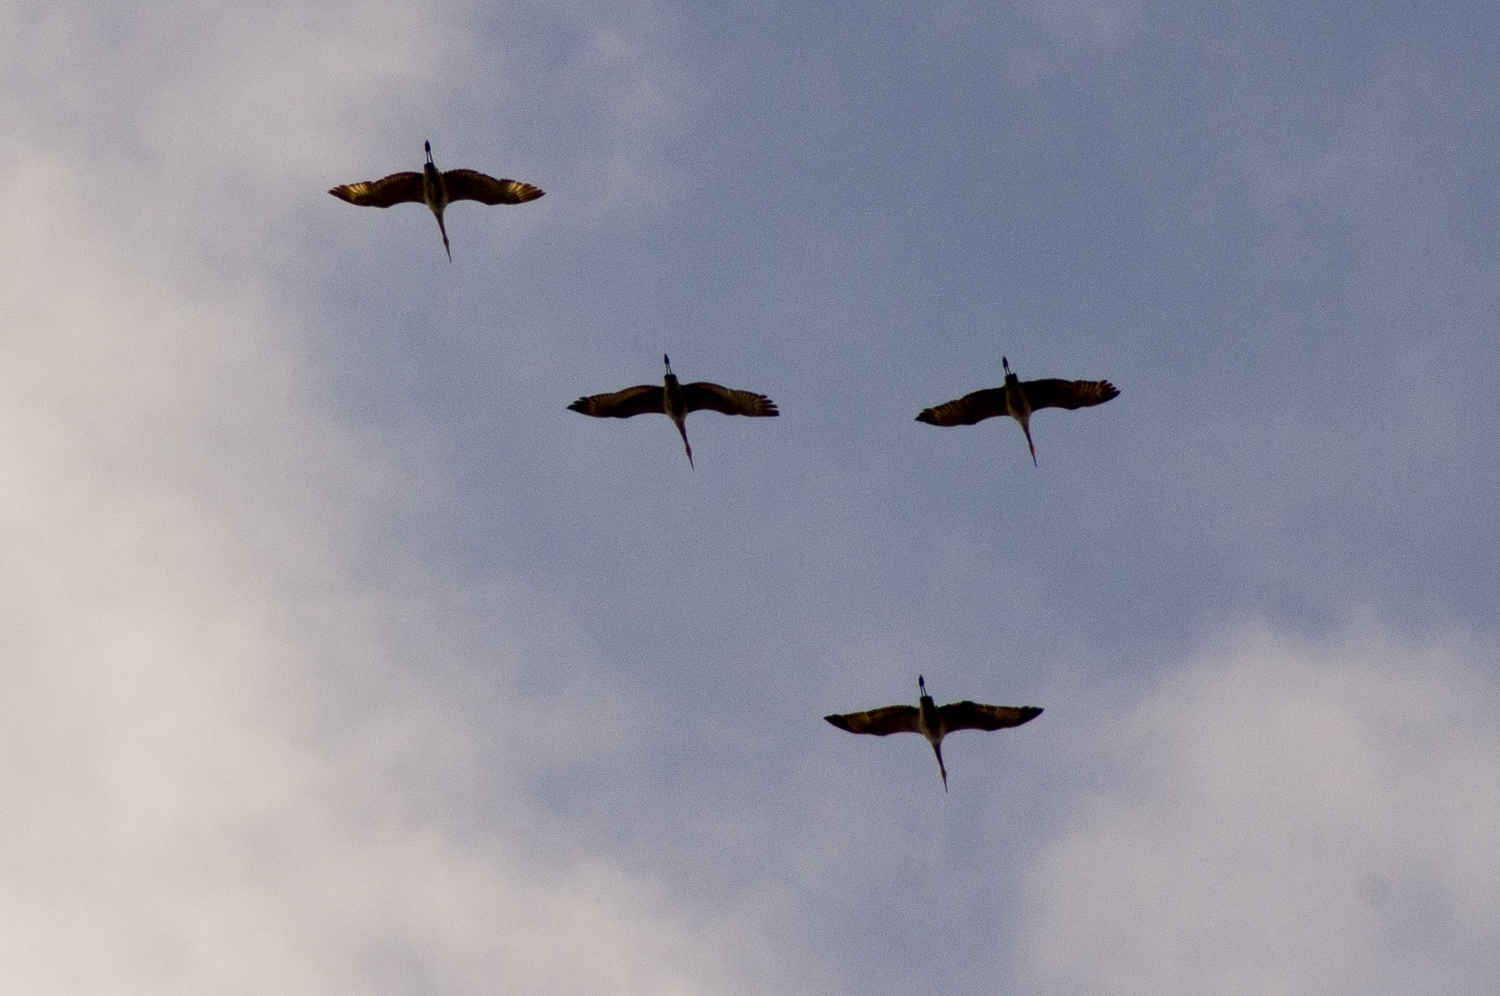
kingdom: Animalia
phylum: Chordata
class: Aves
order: Gruiformes
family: Gruidae
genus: Grus
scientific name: Grus canadensis
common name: Sandhill crane
